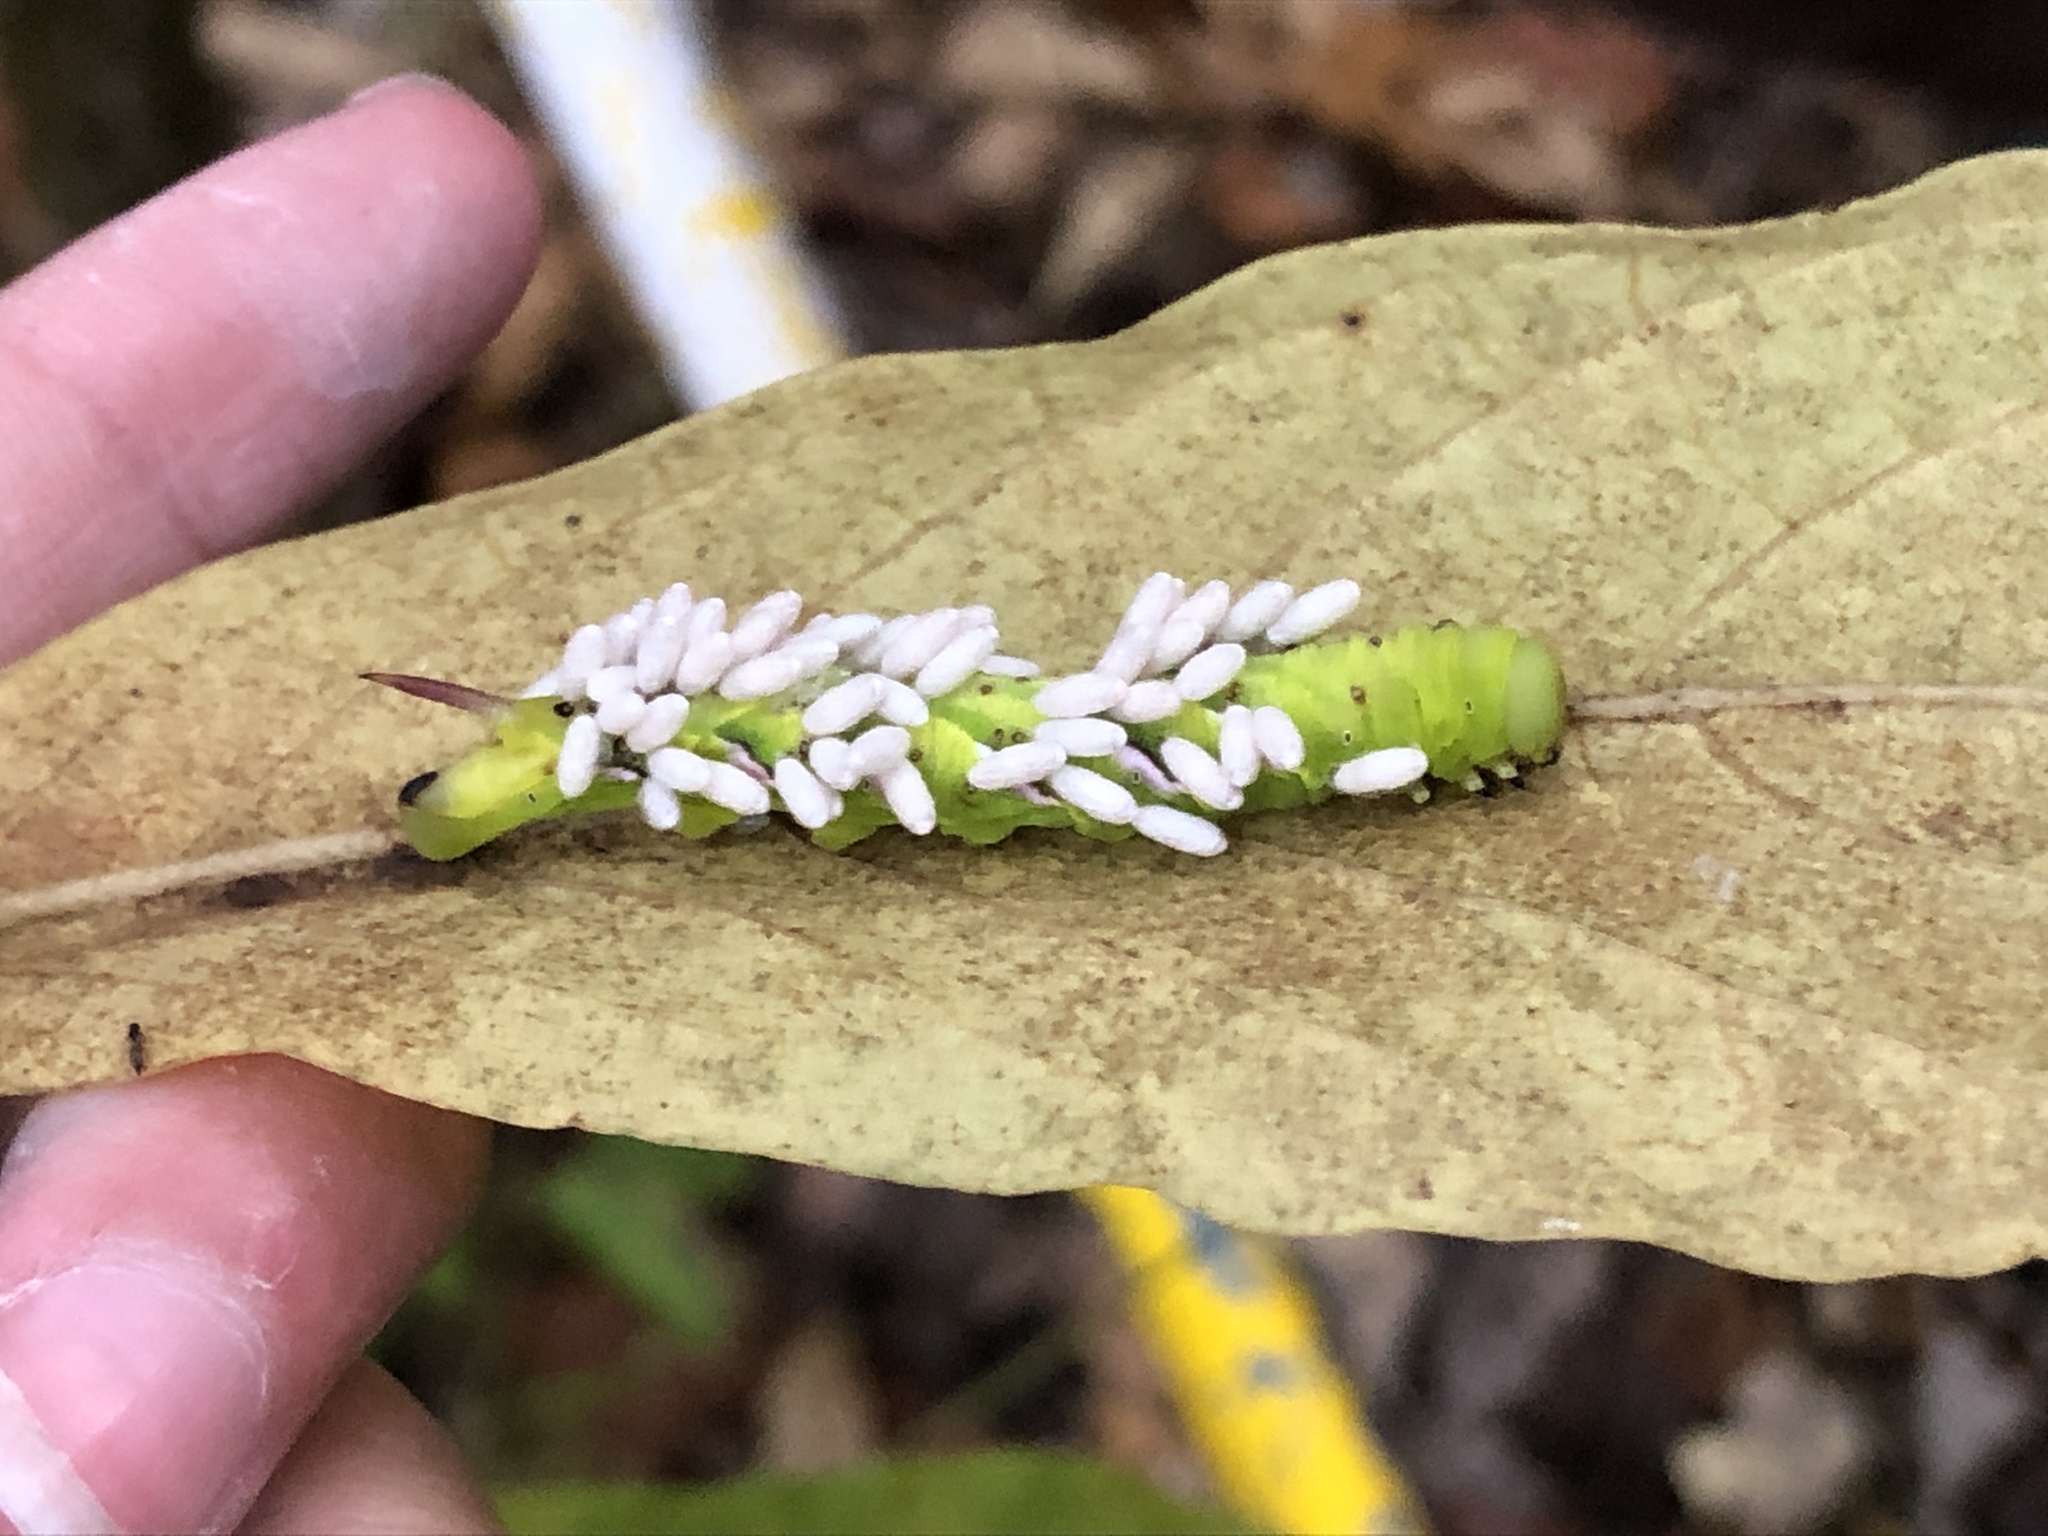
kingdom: Animalia
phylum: Arthropoda
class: Insecta
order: Lepidoptera
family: Sphingidae
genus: Dolba
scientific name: Dolba hyloeus
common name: Pawpaw sphinx
